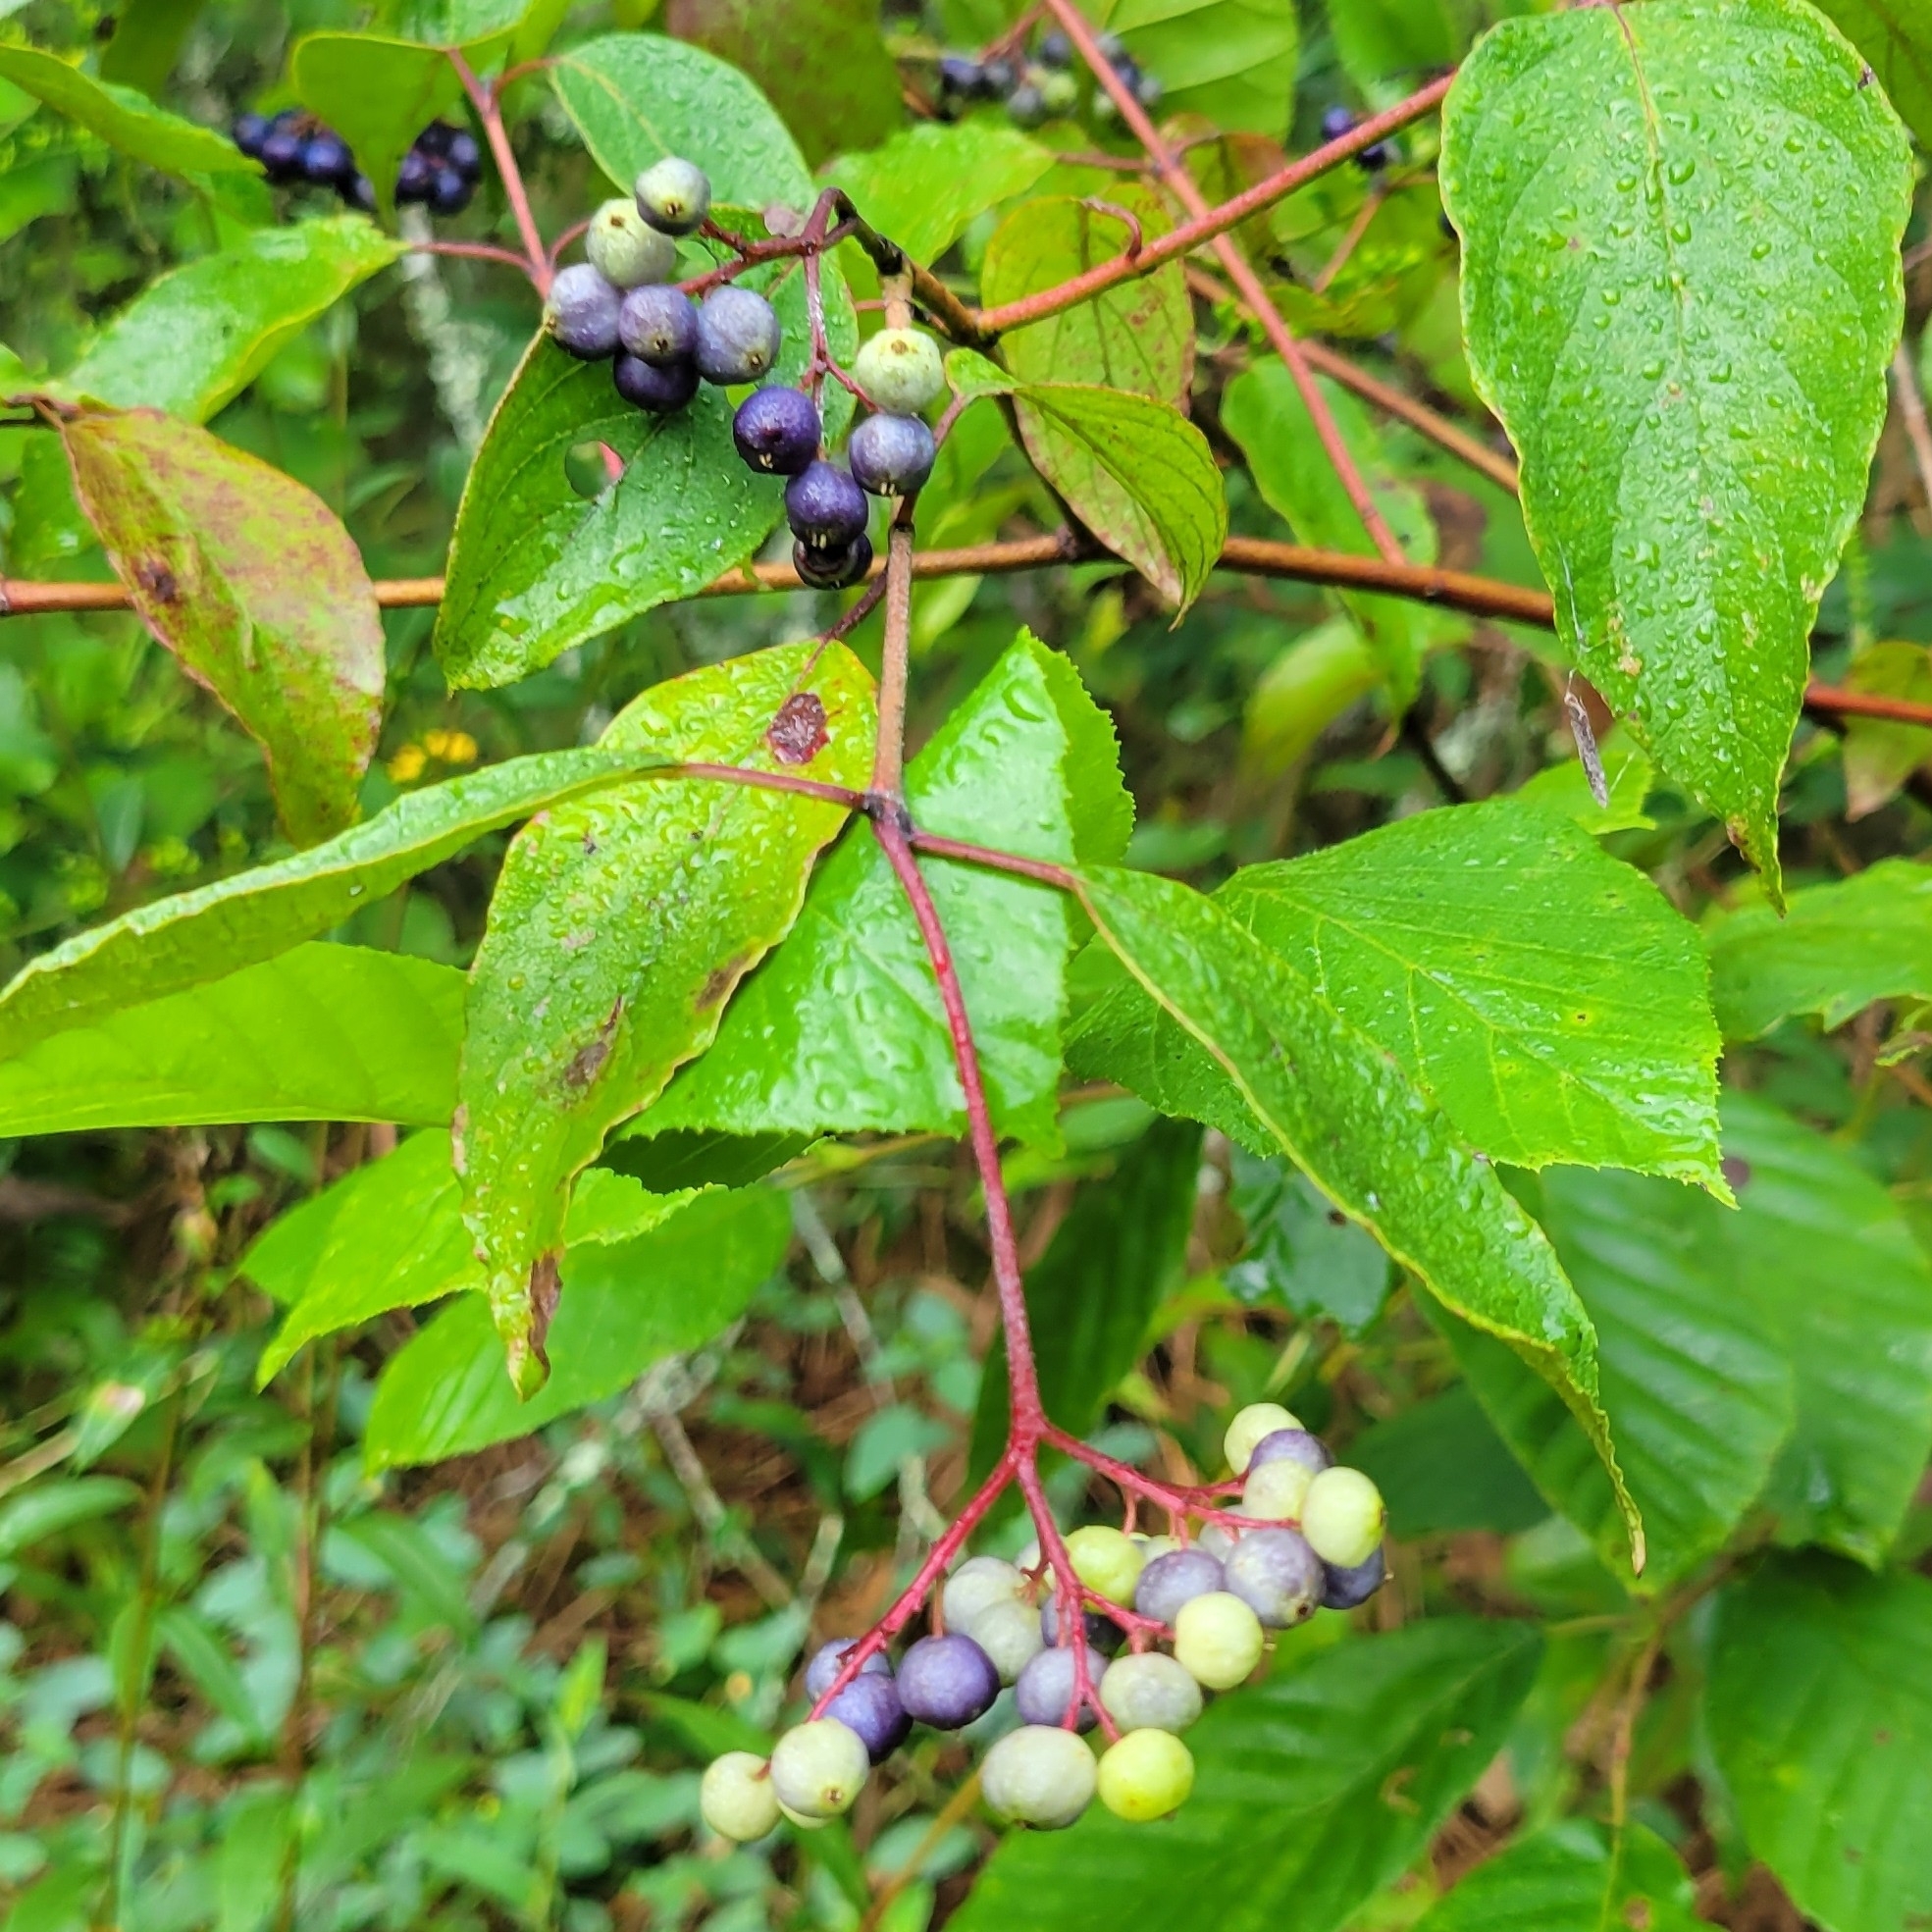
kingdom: Plantae
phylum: Tracheophyta
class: Magnoliopsida
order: Cornales
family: Cornaceae
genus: Cornus
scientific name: Cornus amomum
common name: Silky dogwood
